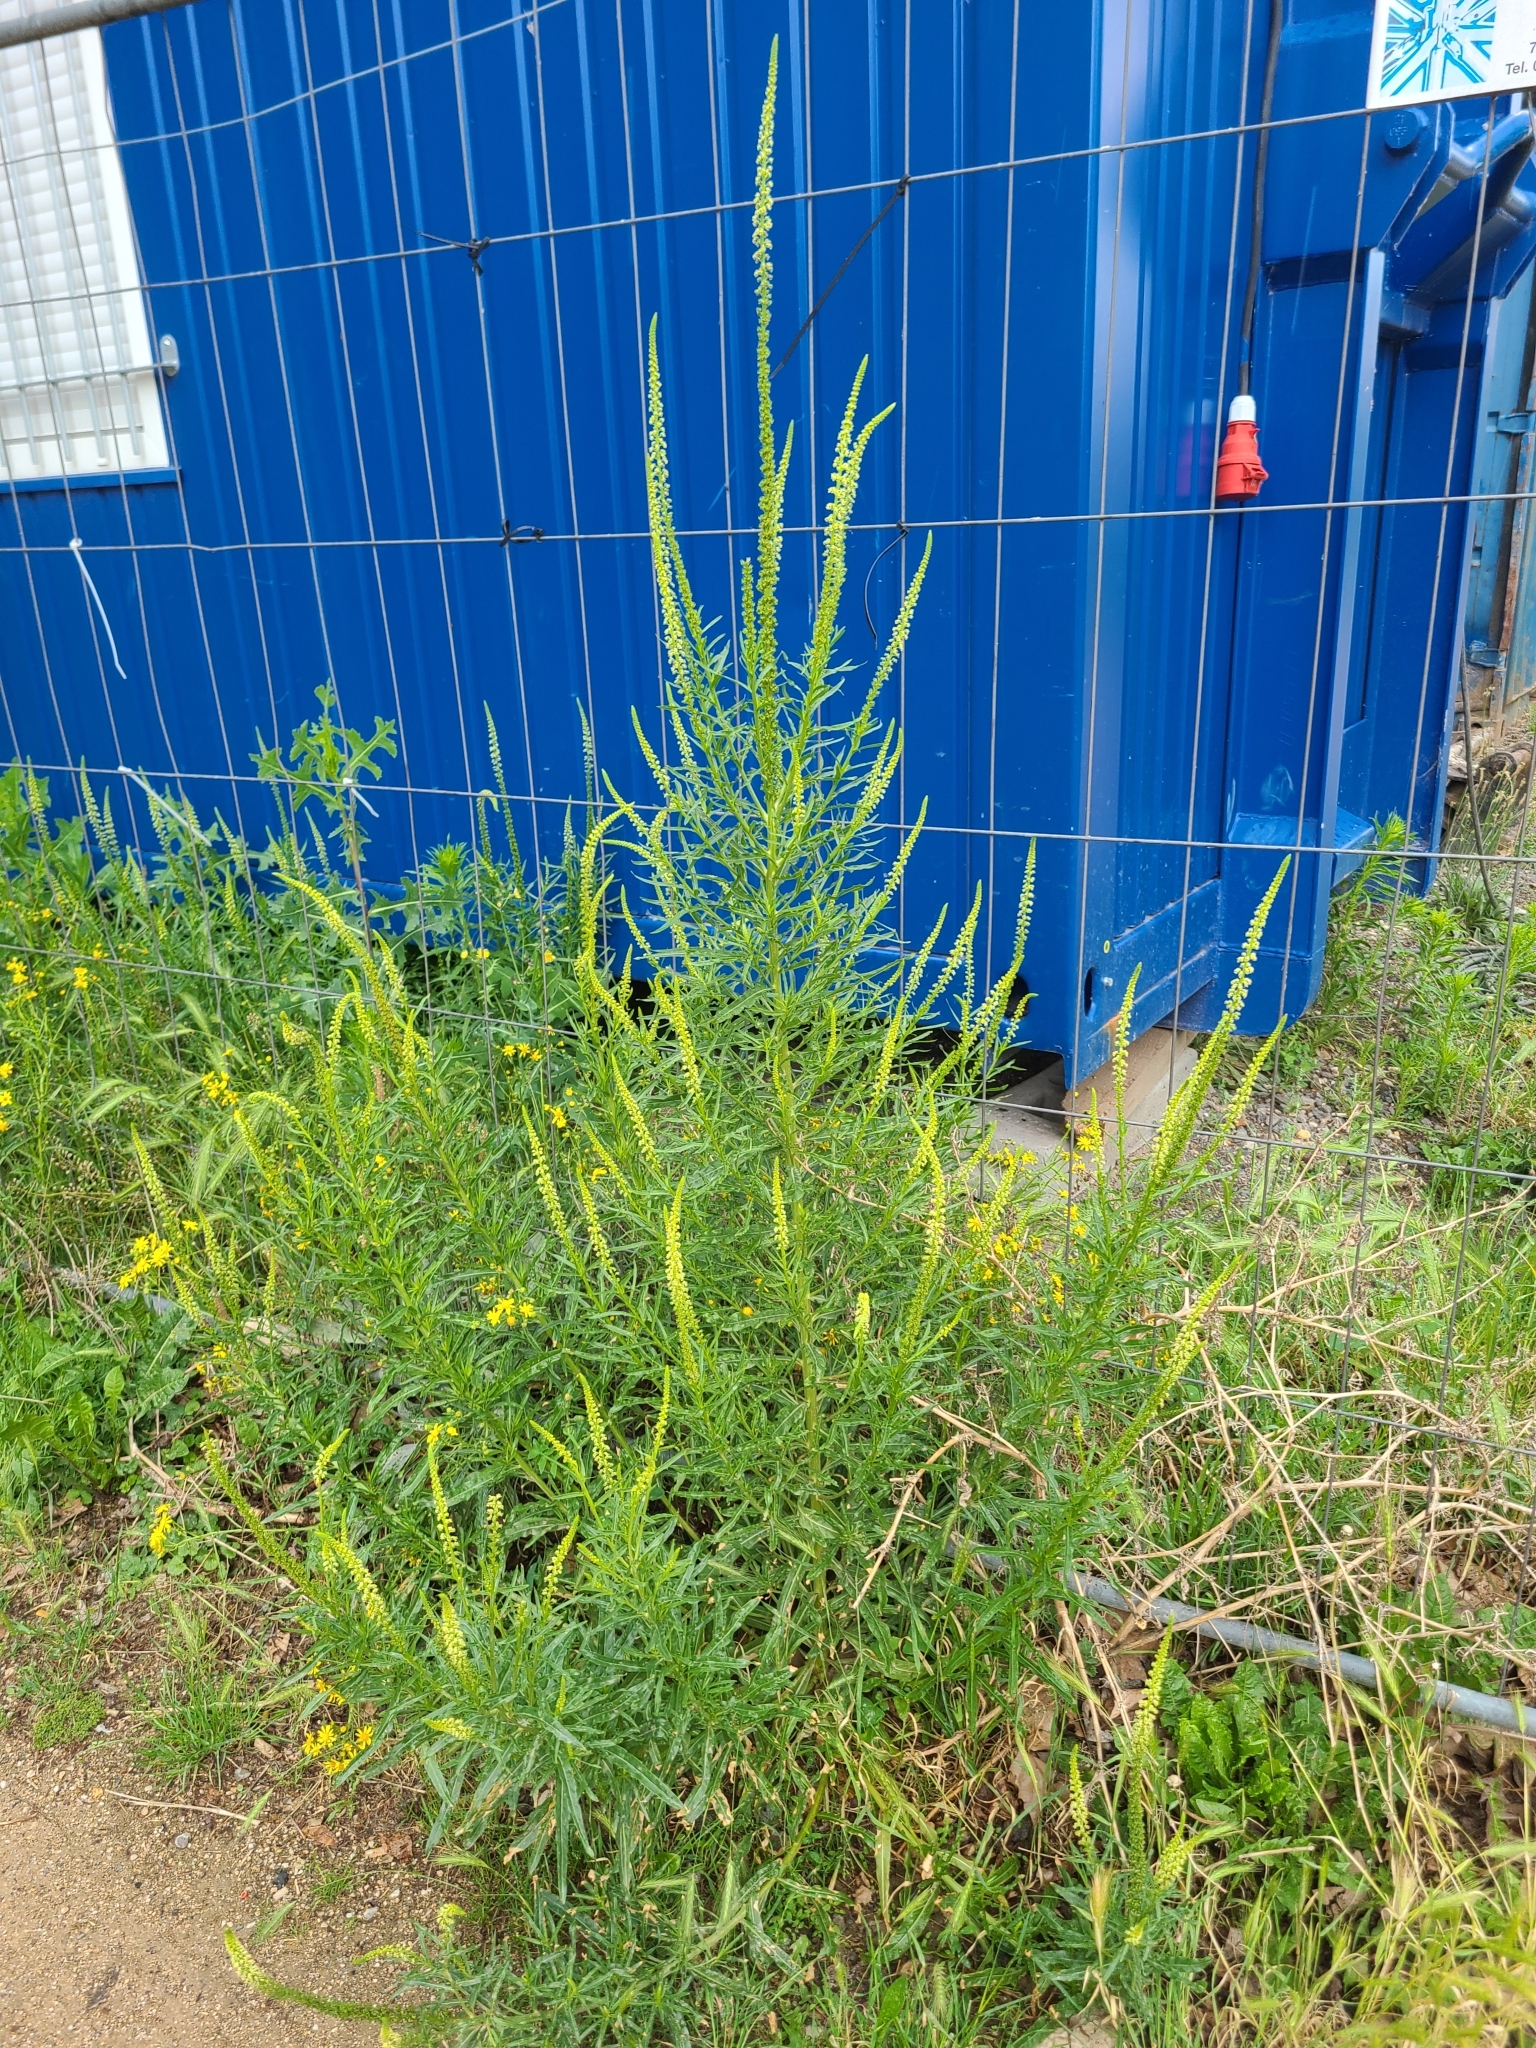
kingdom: Plantae
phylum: Tracheophyta
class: Magnoliopsida
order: Brassicales
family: Resedaceae
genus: Reseda
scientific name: Reseda luteola
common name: Weld
